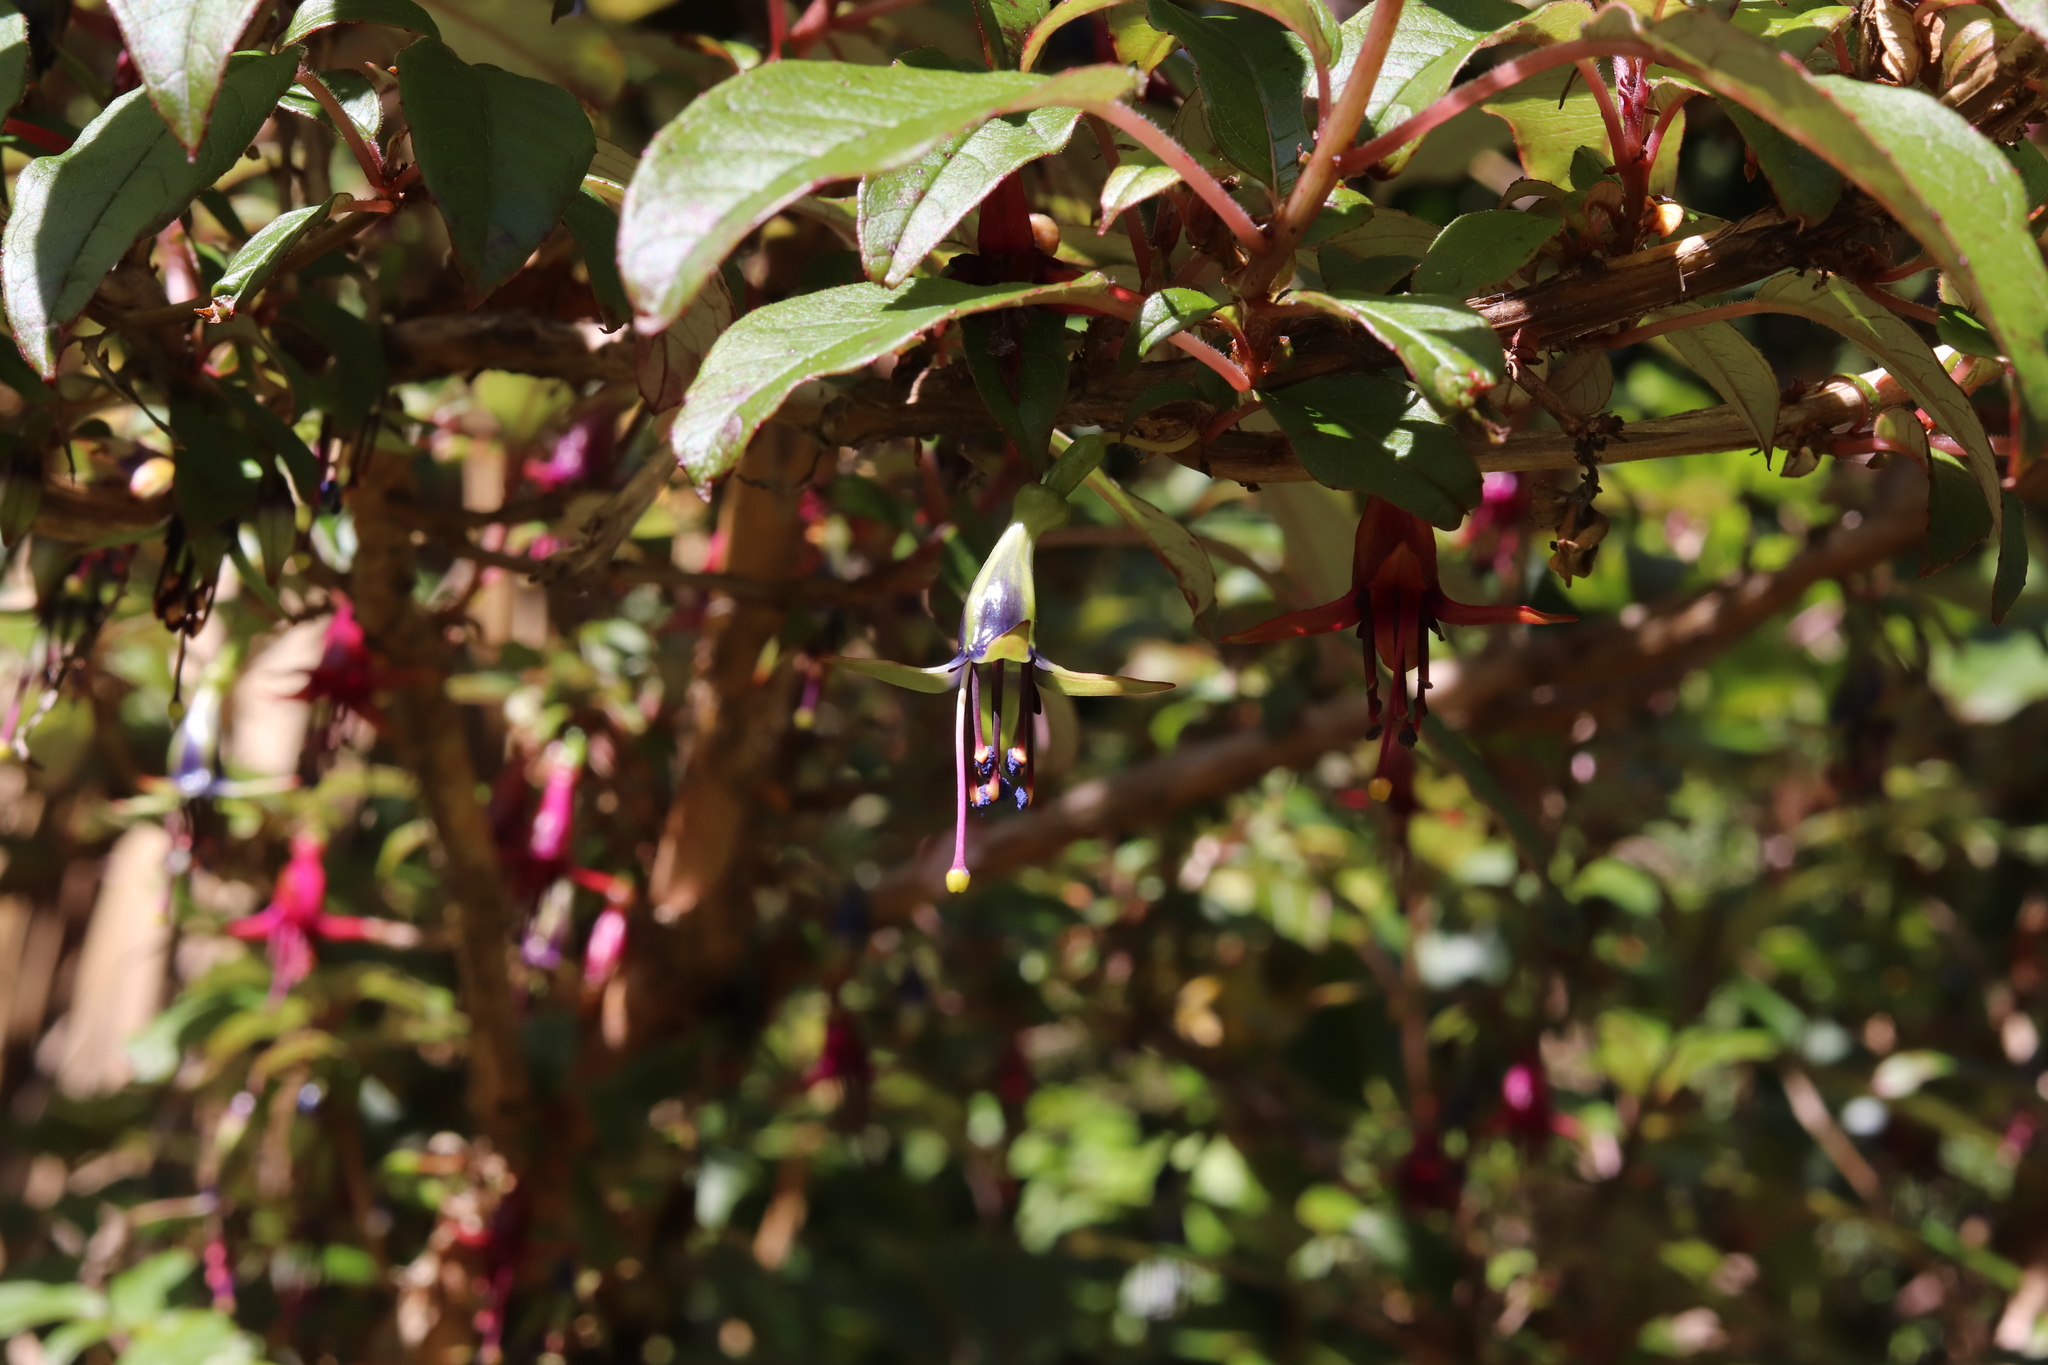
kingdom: Plantae
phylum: Tracheophyta
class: Magnoliopsida
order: Myrtales
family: Onagraceae
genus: Fuchsia
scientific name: Fuchsia excorticata
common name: Tree fuchsia
